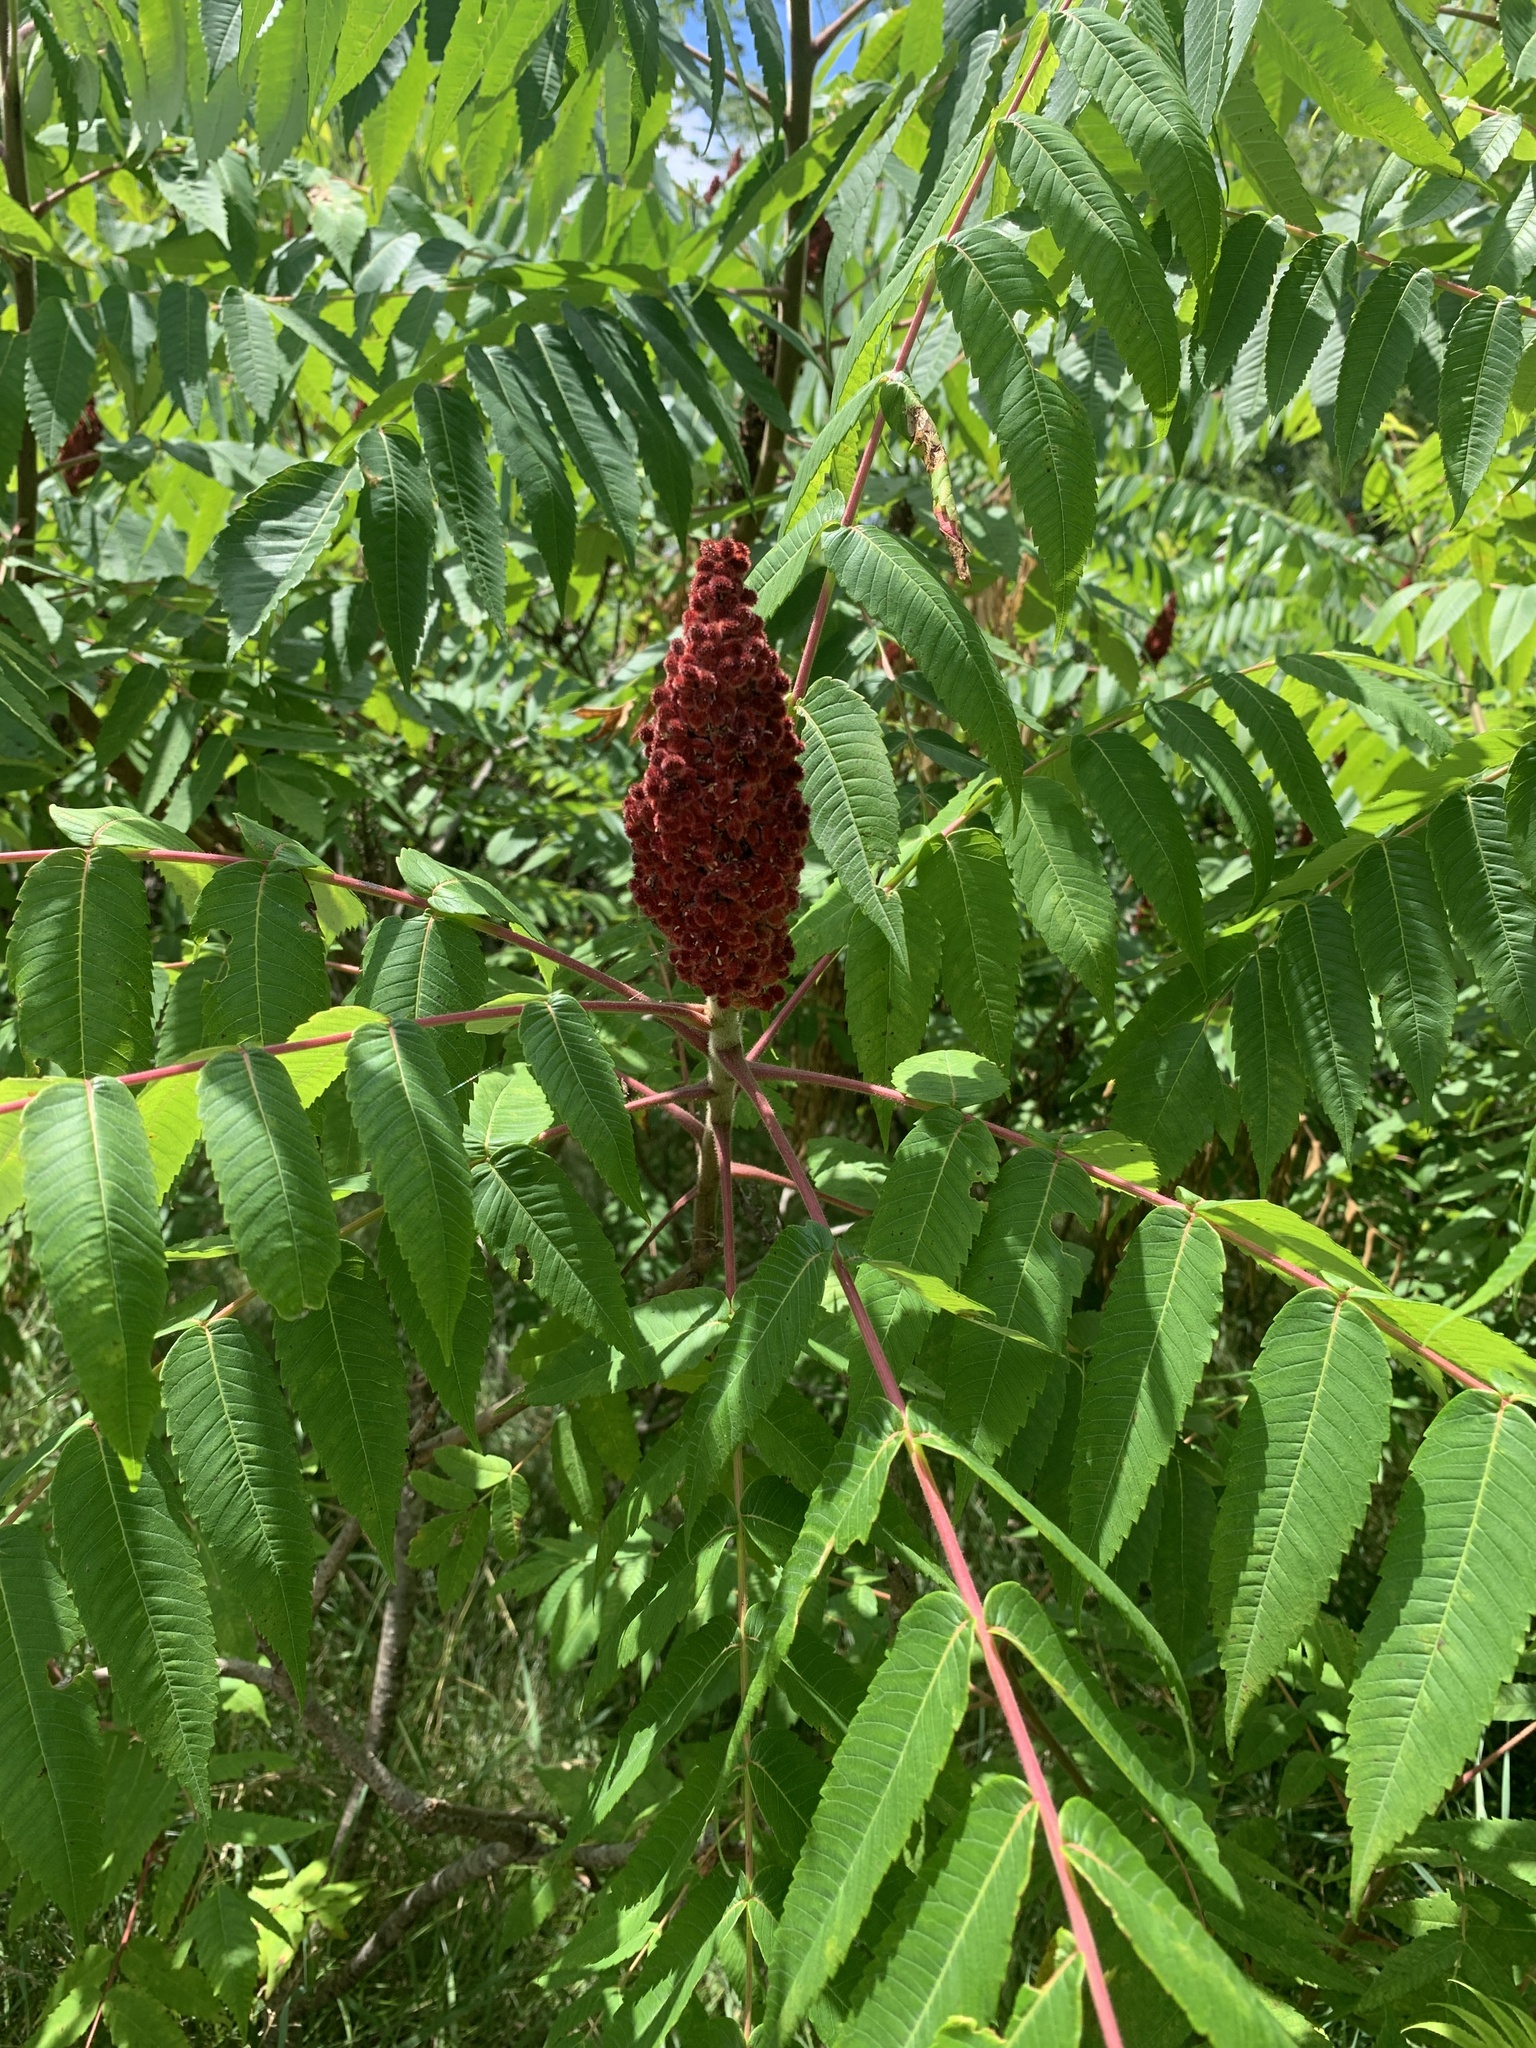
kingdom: Plantae
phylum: Tracheophyta
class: Magnoliopsida
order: Sapindales
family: Anacardiaceae
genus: Rhus
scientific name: Rhus typhina
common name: Staghorn sumac
